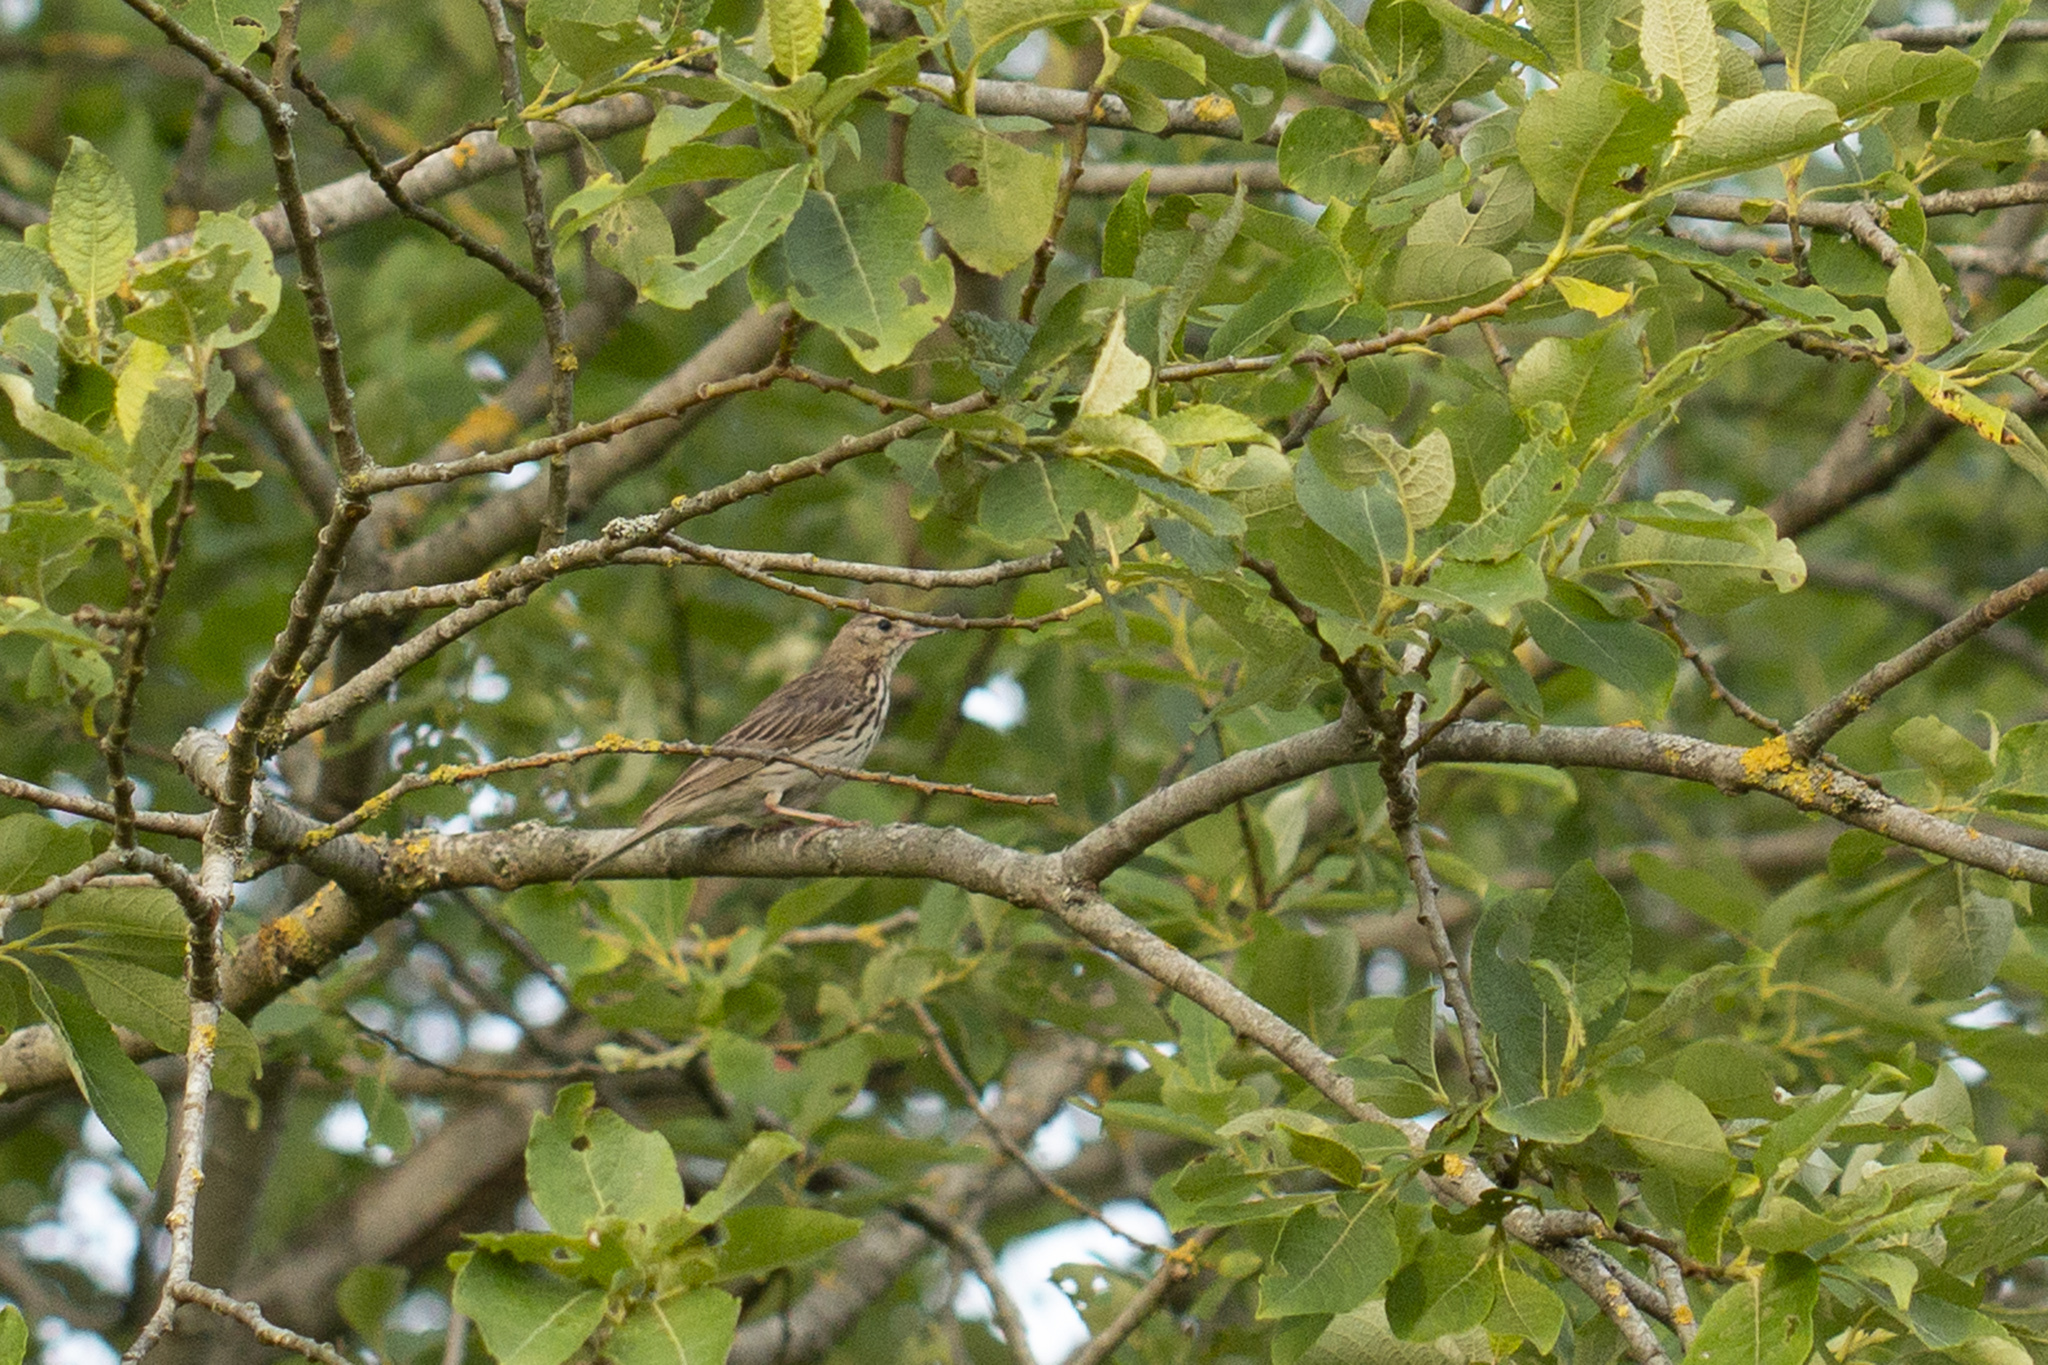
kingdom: Animalia
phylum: Chordata
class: Aves
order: Passeriformes
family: Motacillidae
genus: Anthus
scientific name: Anthus trivialis
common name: Tree pipit
